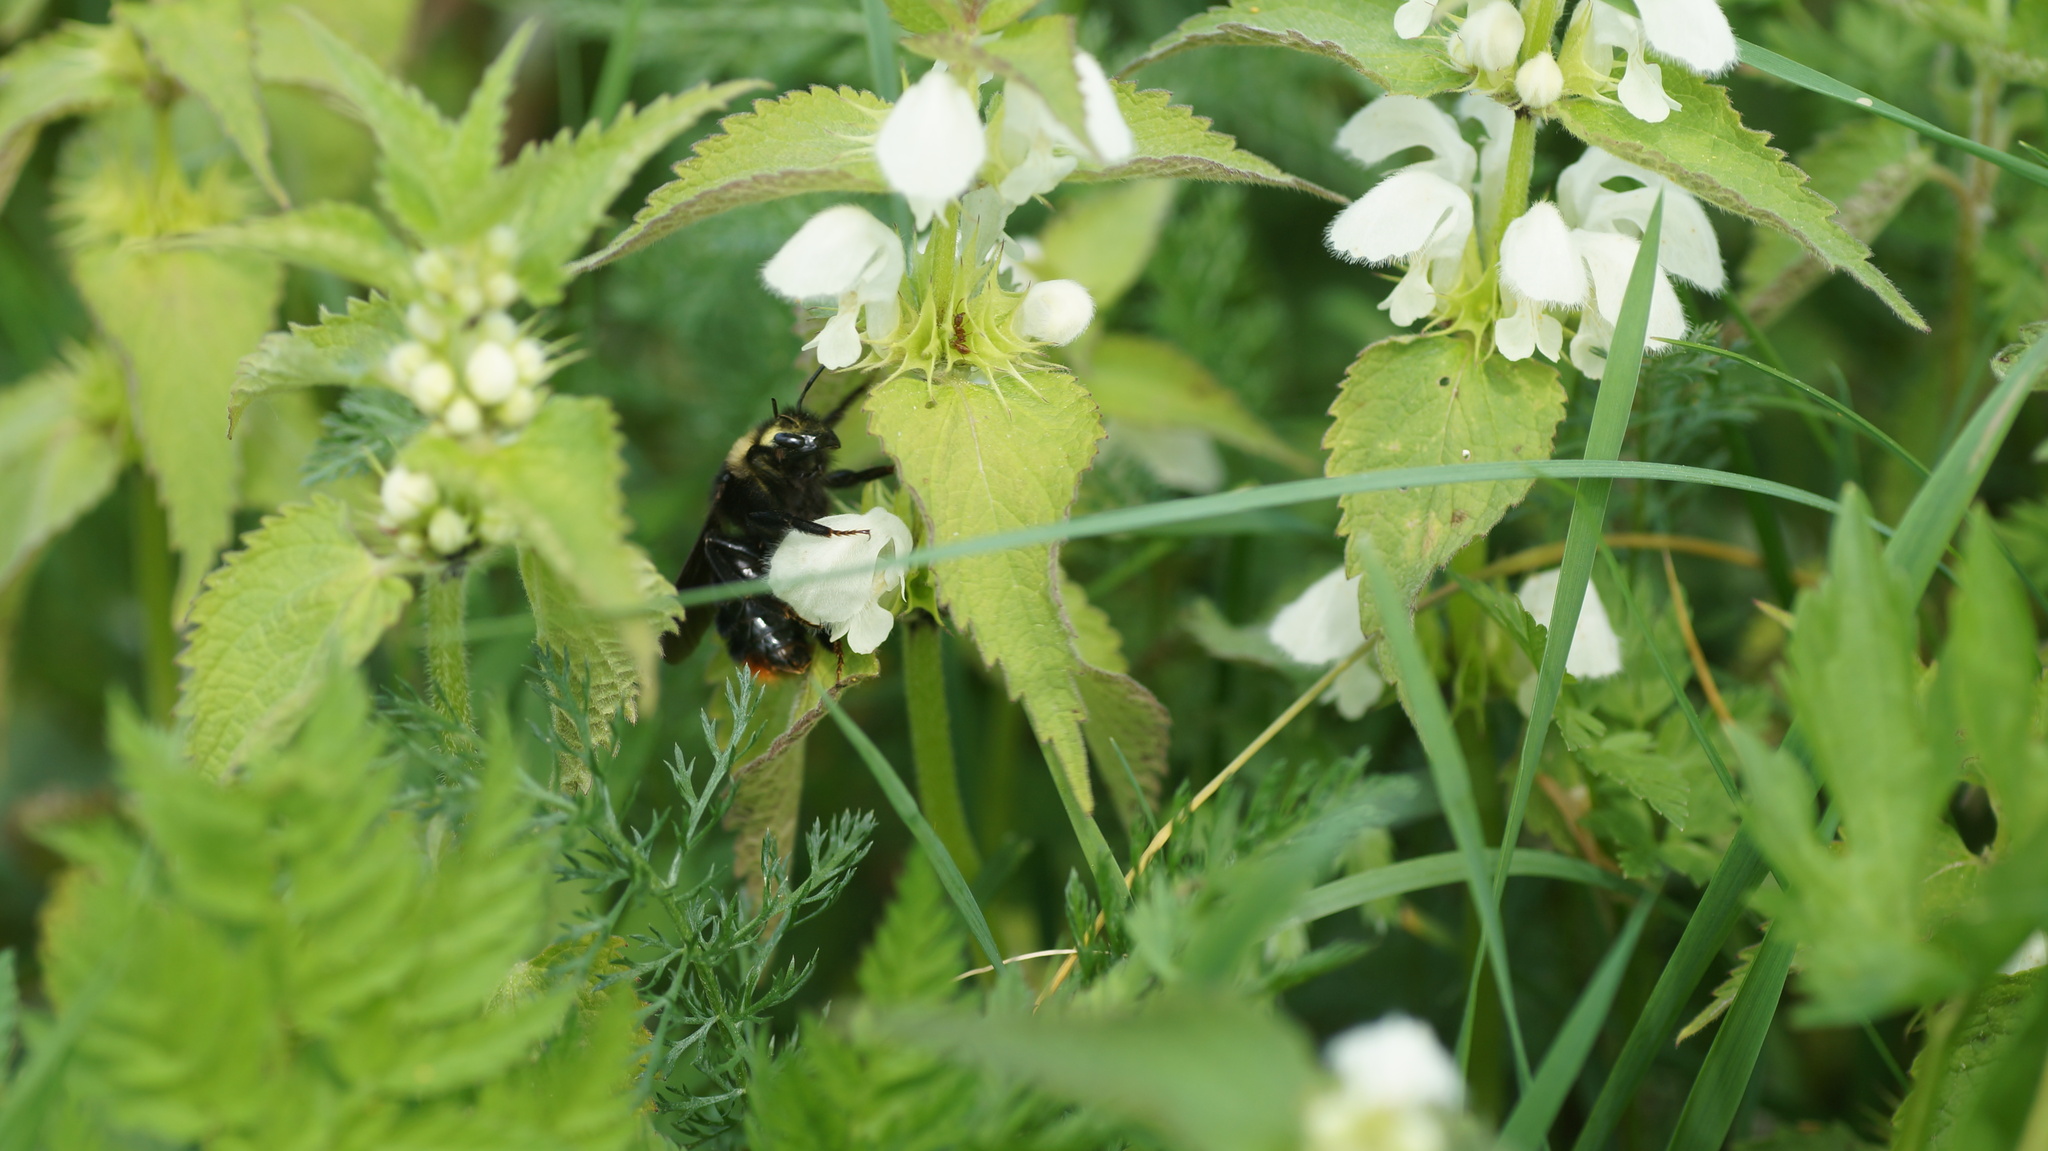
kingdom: Animalia
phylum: Arthropoda
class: Insecta
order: Hymenoptera
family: Apidae
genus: Bombus
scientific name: Bombus rupestris
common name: Hill cuckoo-bee
